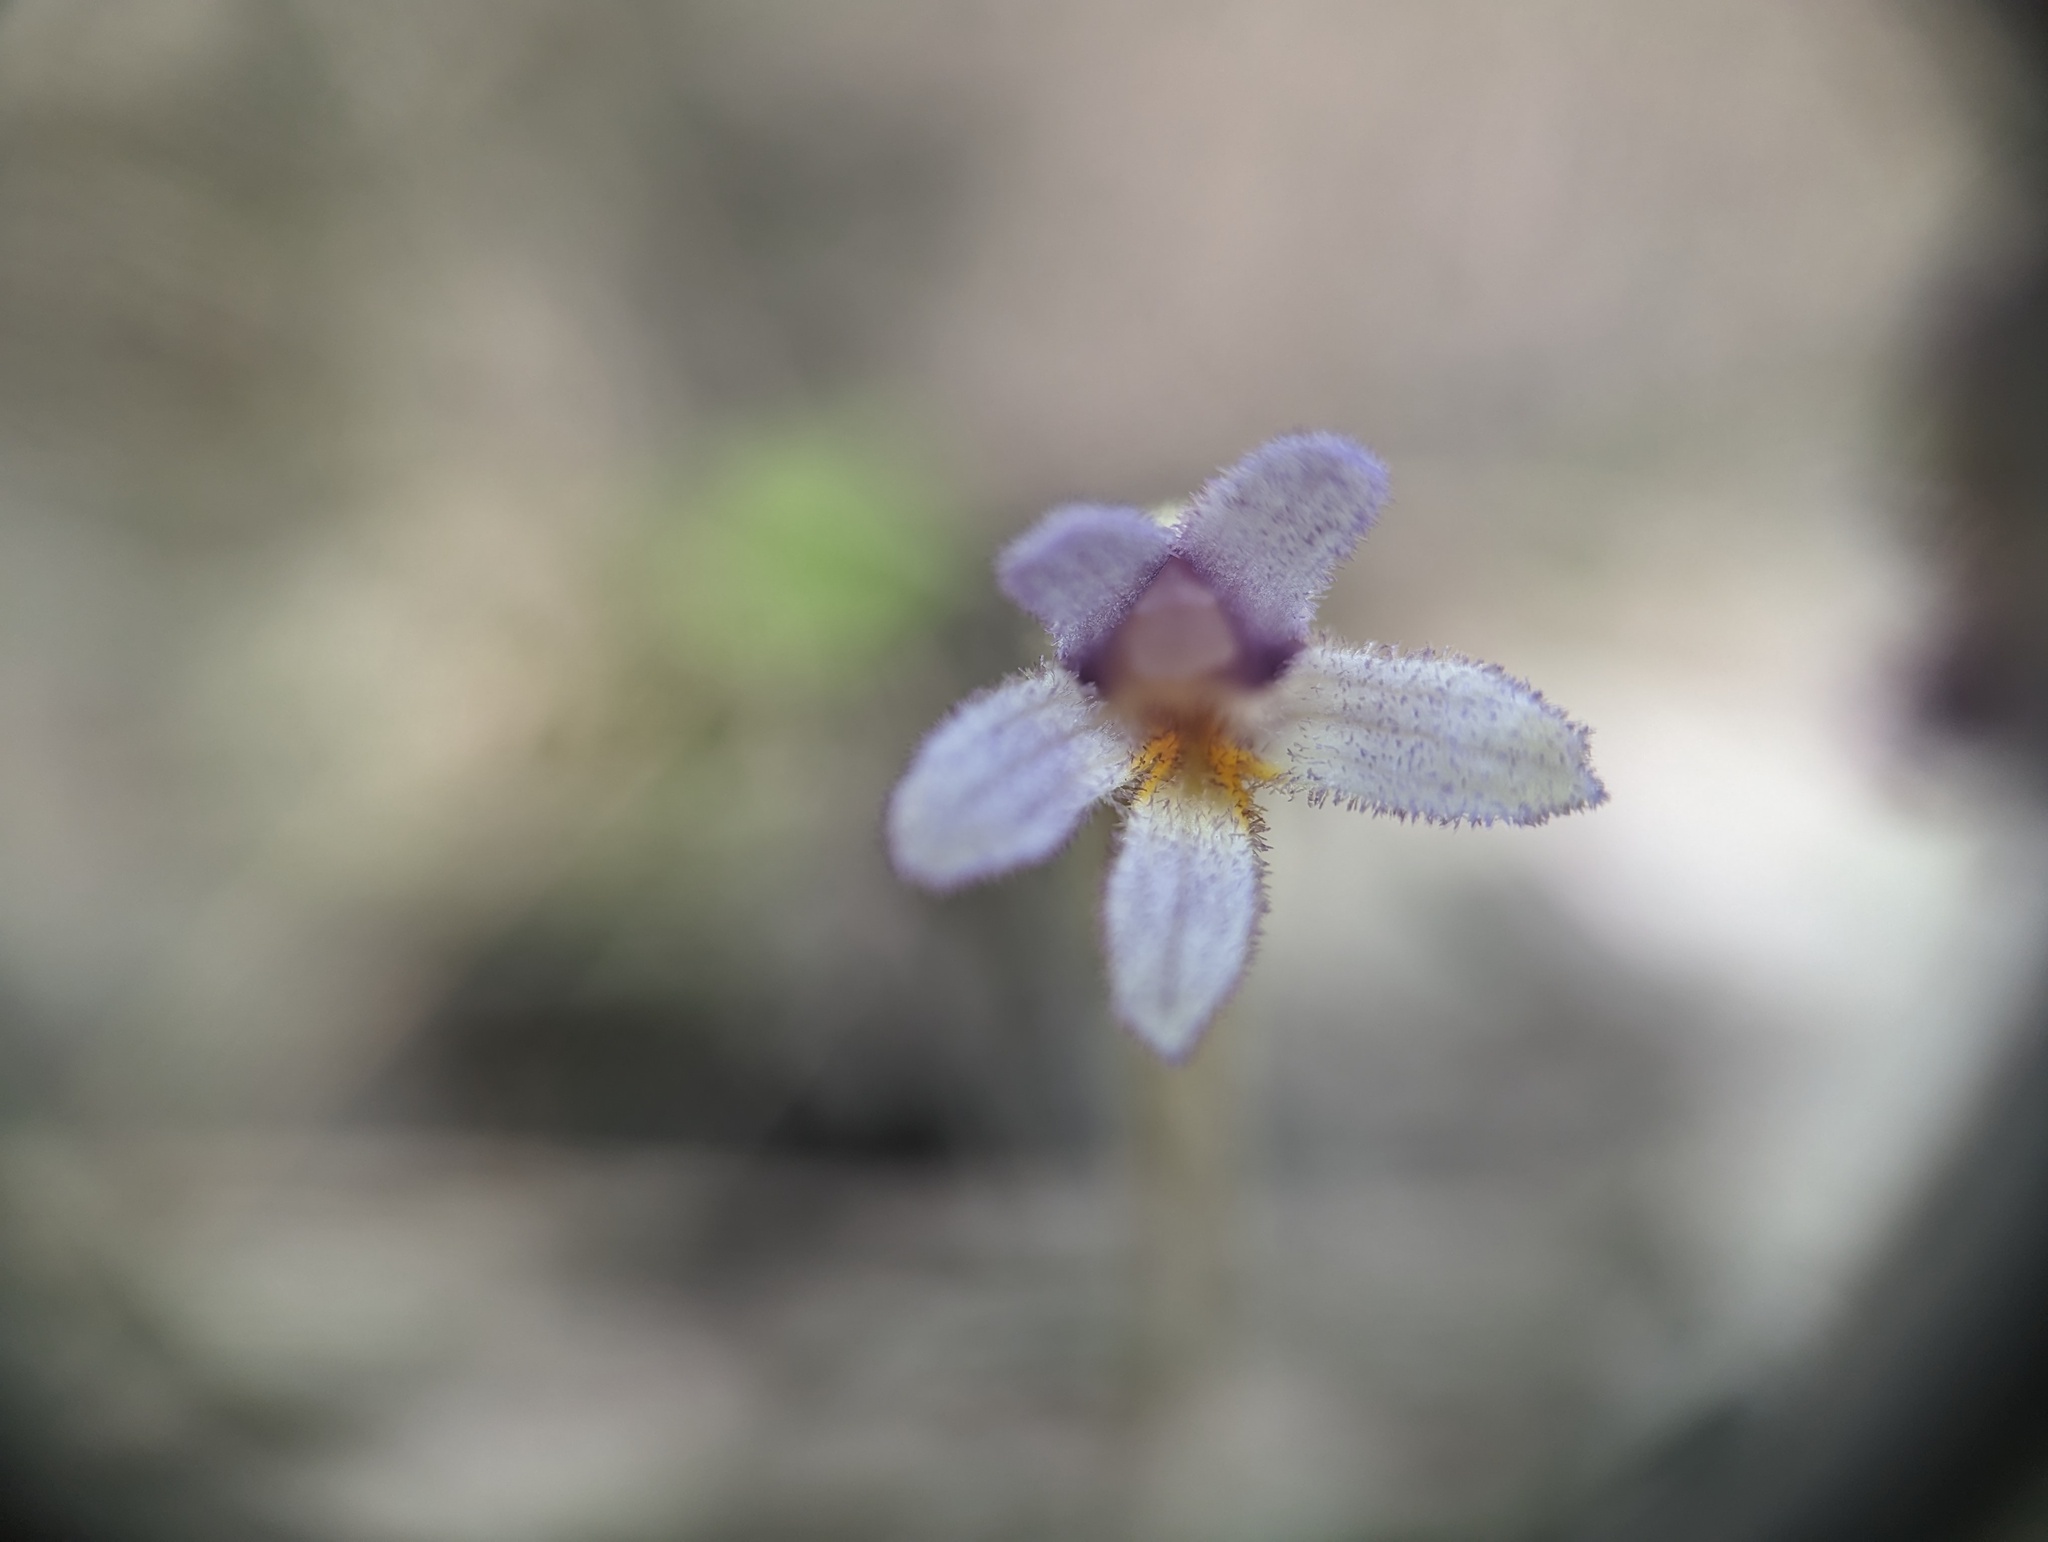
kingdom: Plantae
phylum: Tracheophyta
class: Magnoliopsida
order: Lamiales
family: Orobanchaceae
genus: Aphyllon
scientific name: Aphyllon uniflorum
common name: One-flowered broomrape
